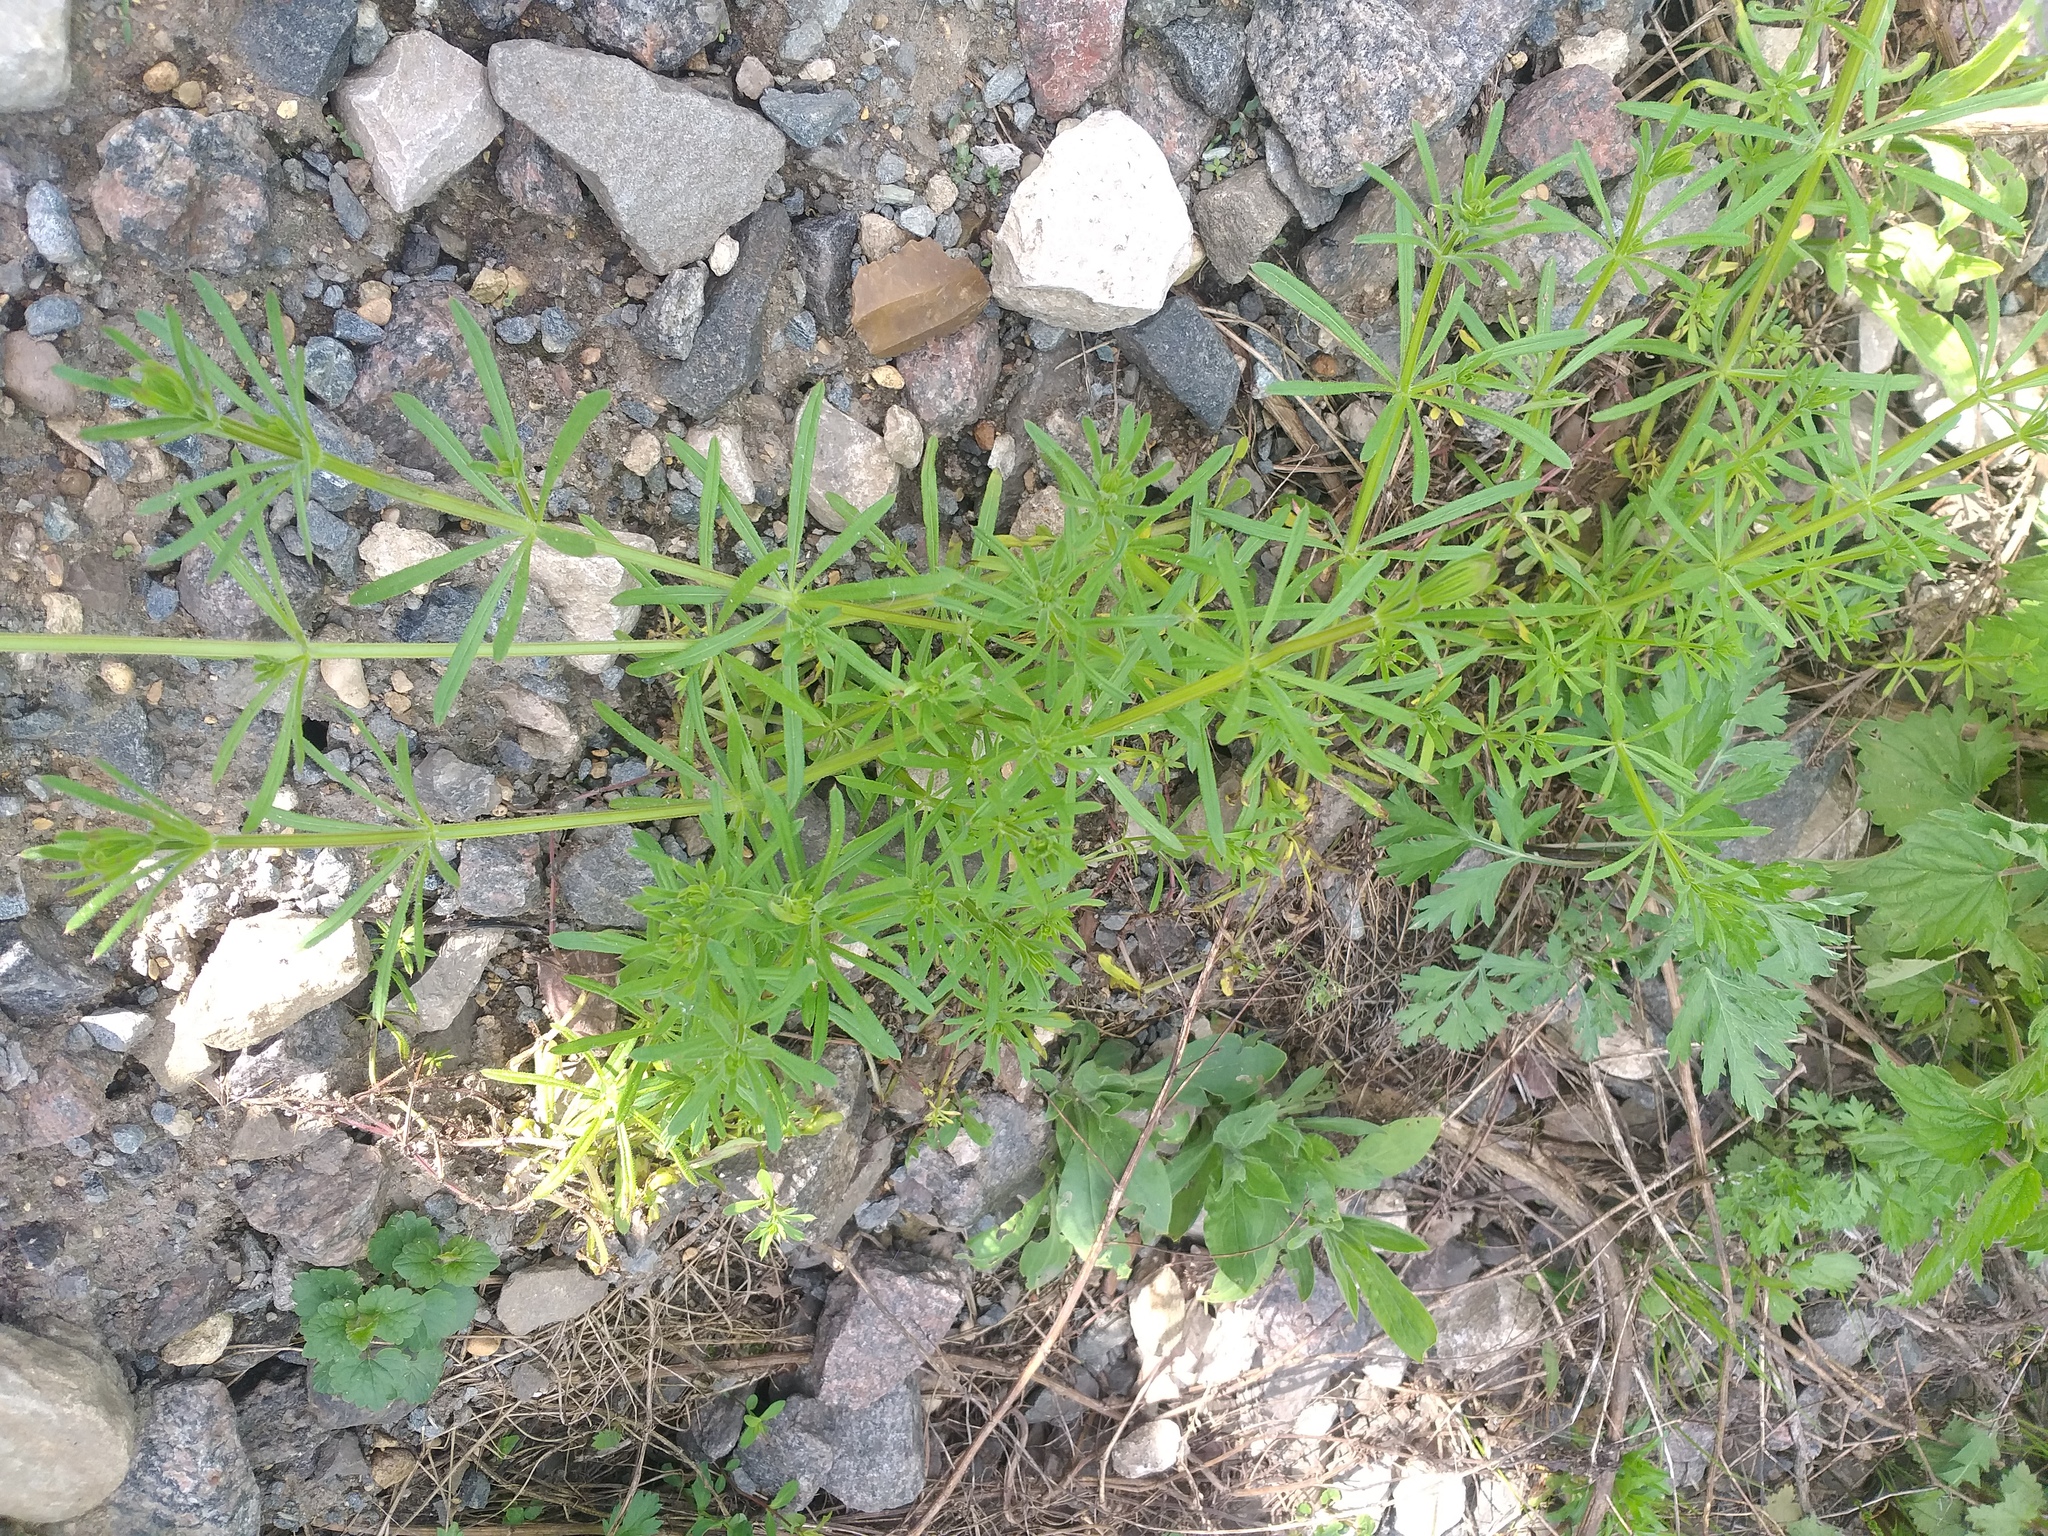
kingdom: Plantae
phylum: Tracheophyta
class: Magnoliopsida
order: Gentianales
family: Rubiaceae
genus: Galium
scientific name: Galium aparine
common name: Cleavers
